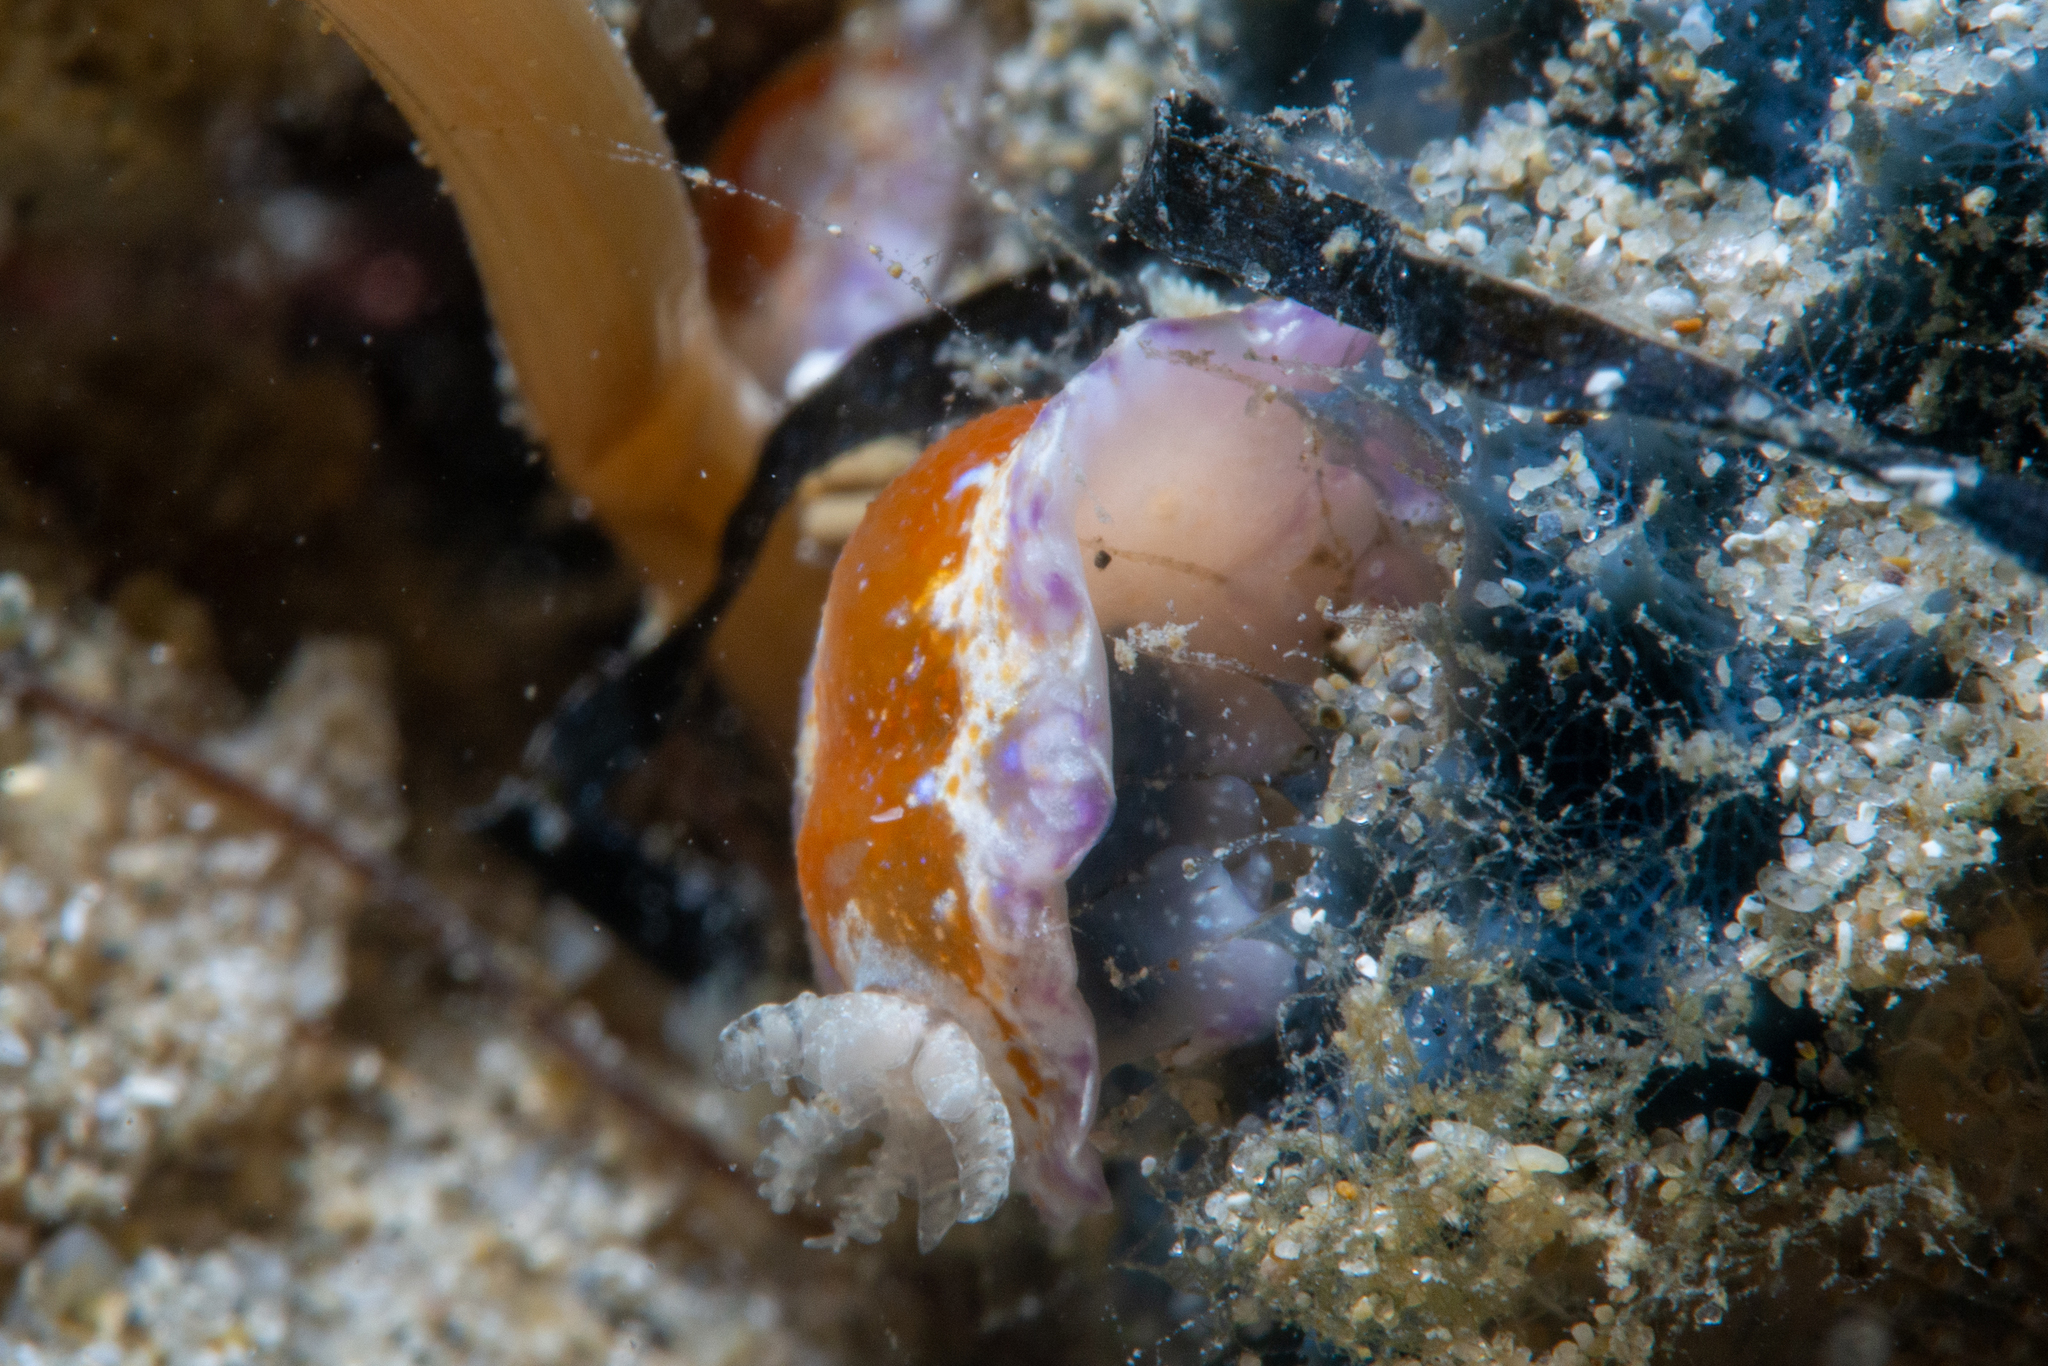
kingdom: Animalia
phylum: Mollusca
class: Gastropoda
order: Nudibranchia
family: Chromodorididae
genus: Chromodoris
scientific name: Chromodoris alternata
